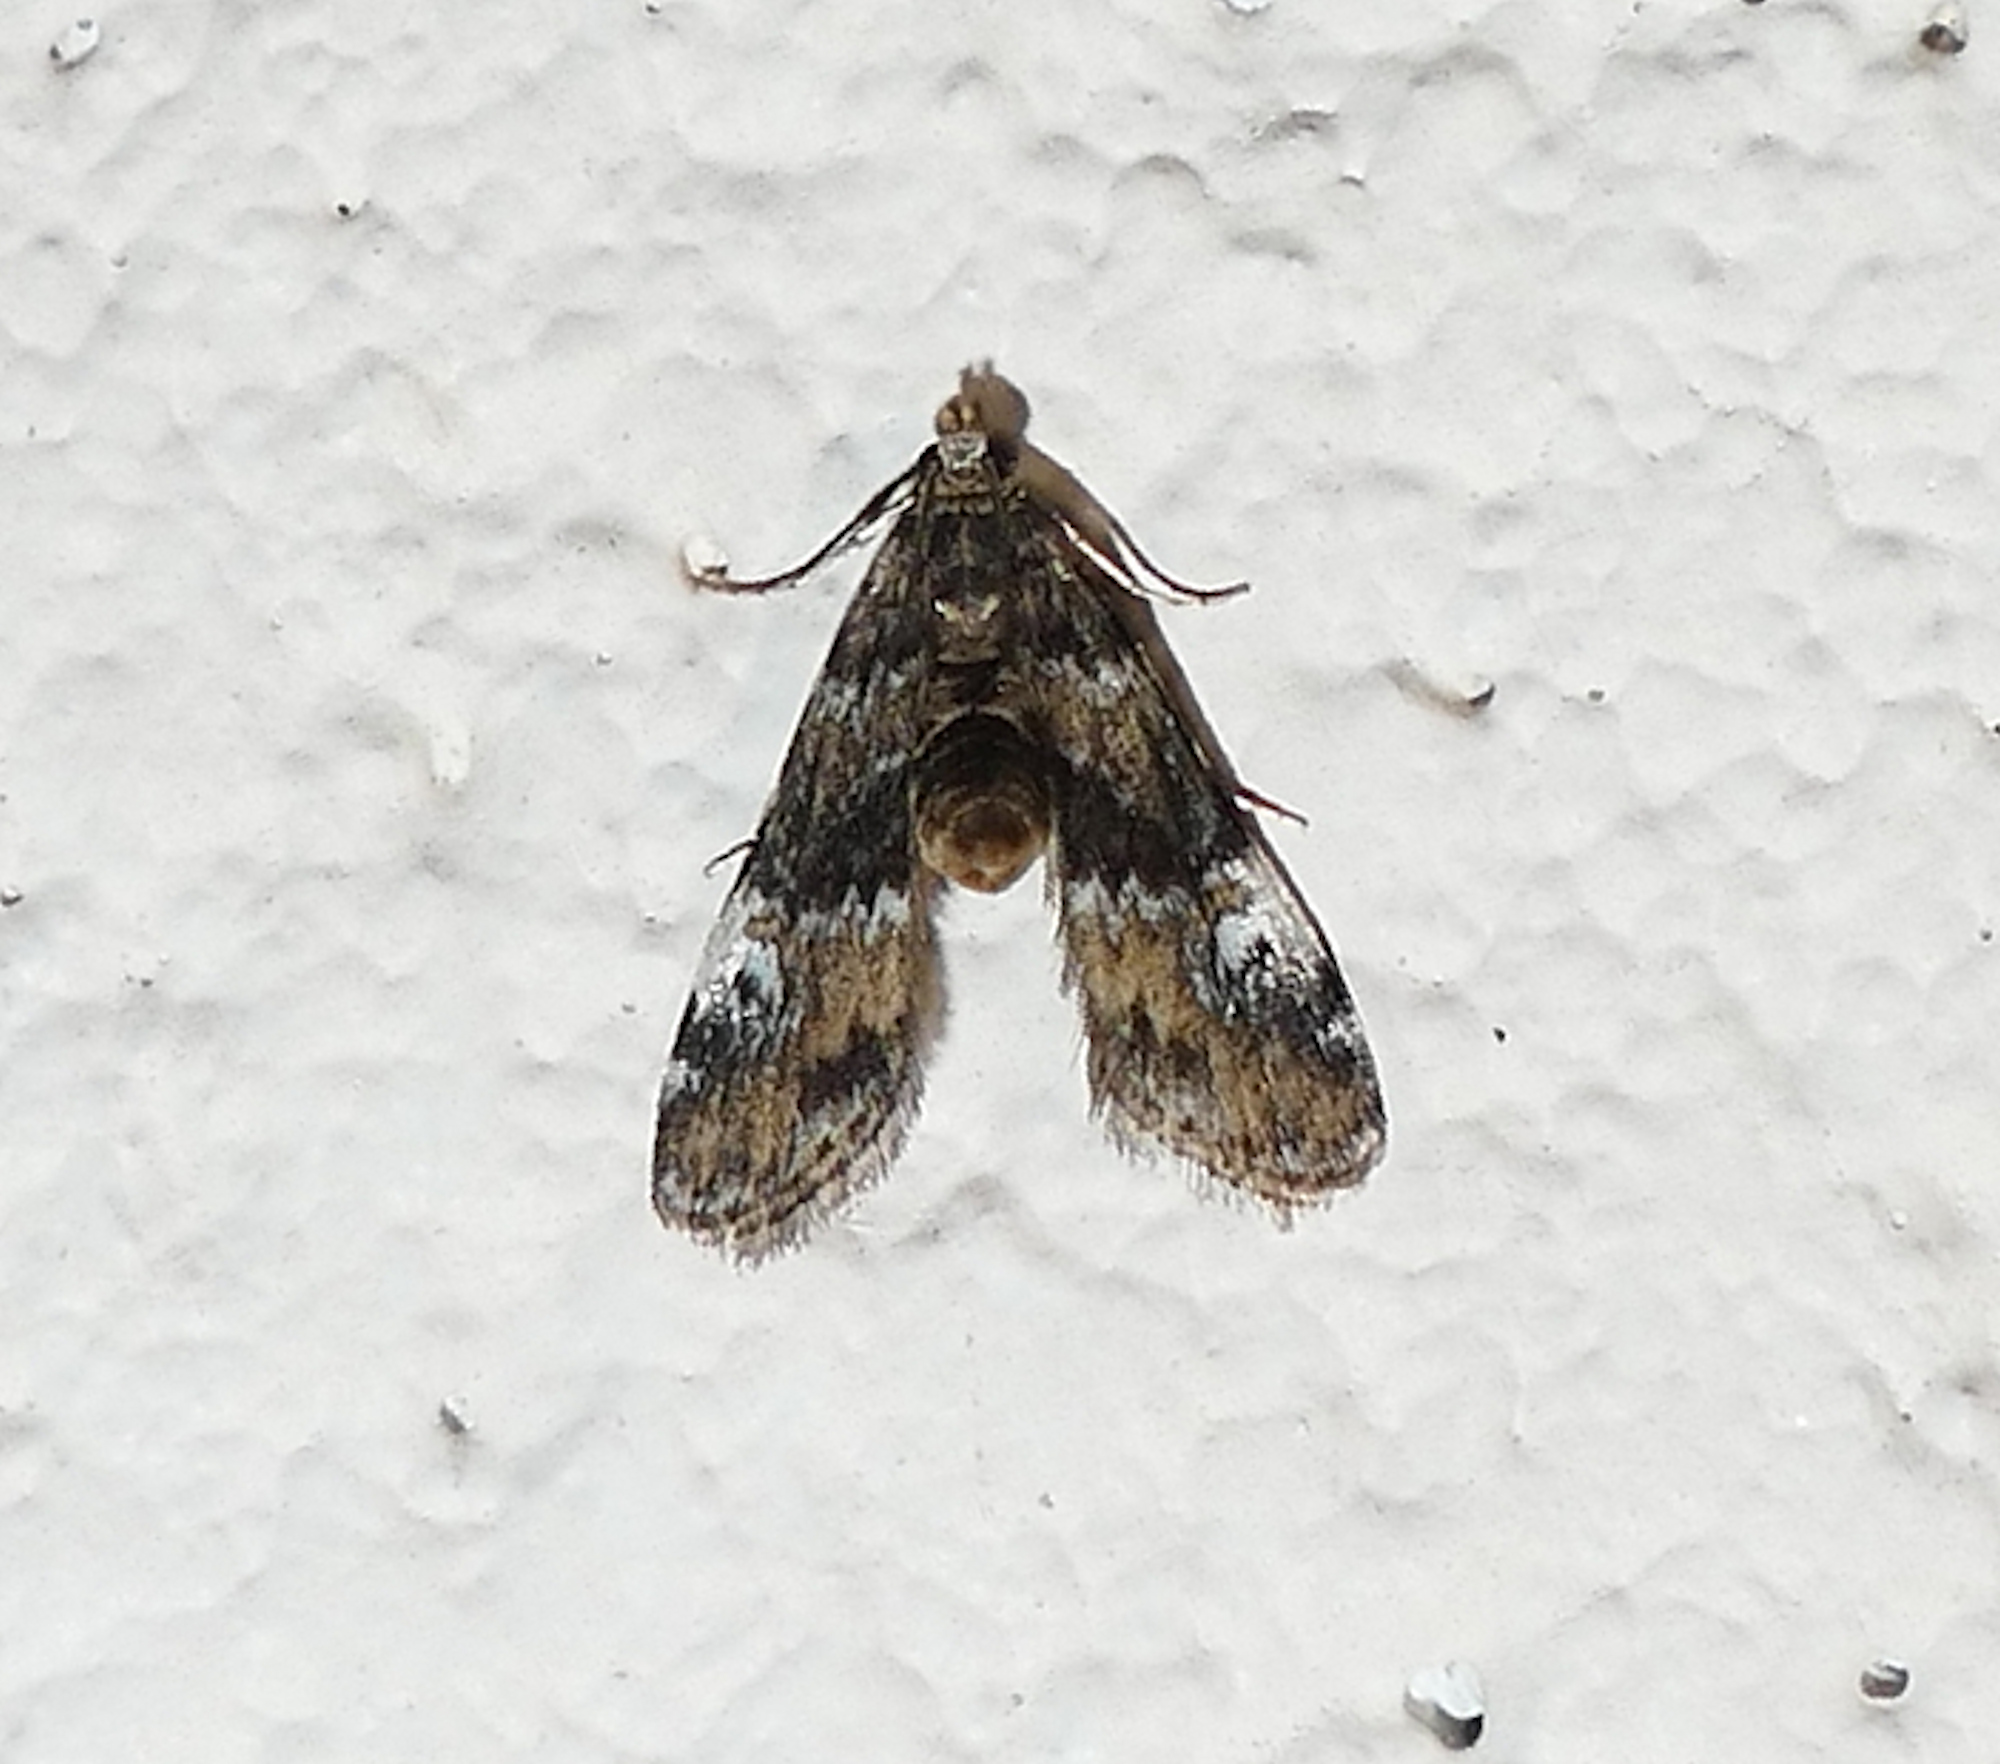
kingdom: Animalia
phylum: Arthropoda
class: Insecta
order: Lepidoptera
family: Crambidae
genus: Elophila
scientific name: Elophila obliteralis
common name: Waterlily leafcutter moth
